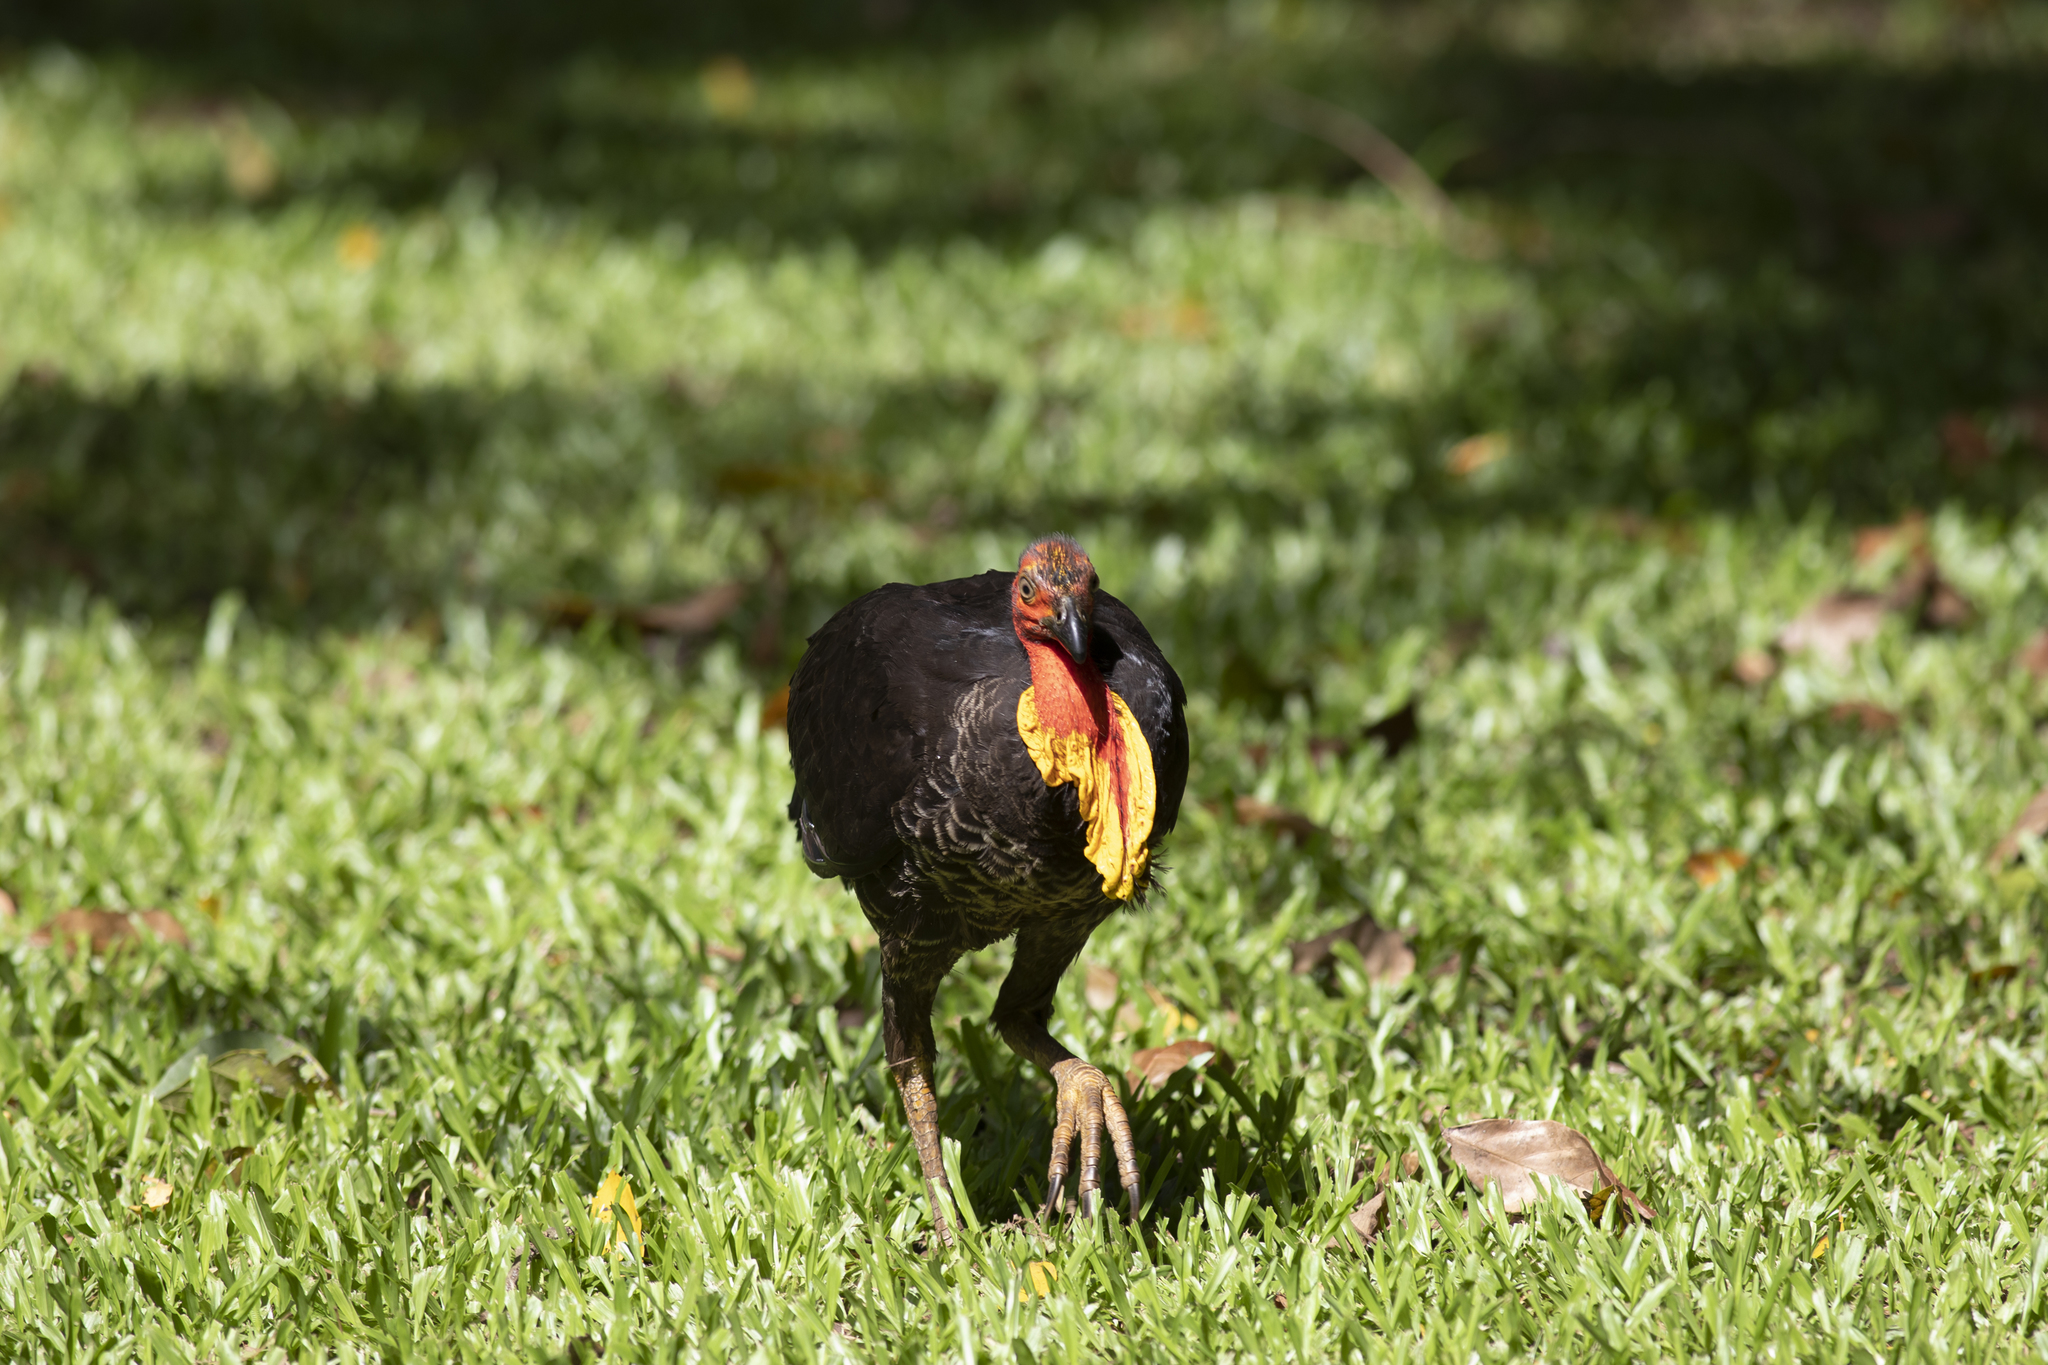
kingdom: Animalia
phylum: Chordata
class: Aves
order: Galliformes
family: Megapodiidae
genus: Alectura
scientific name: Alectura lathami
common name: Australian brushturkey
